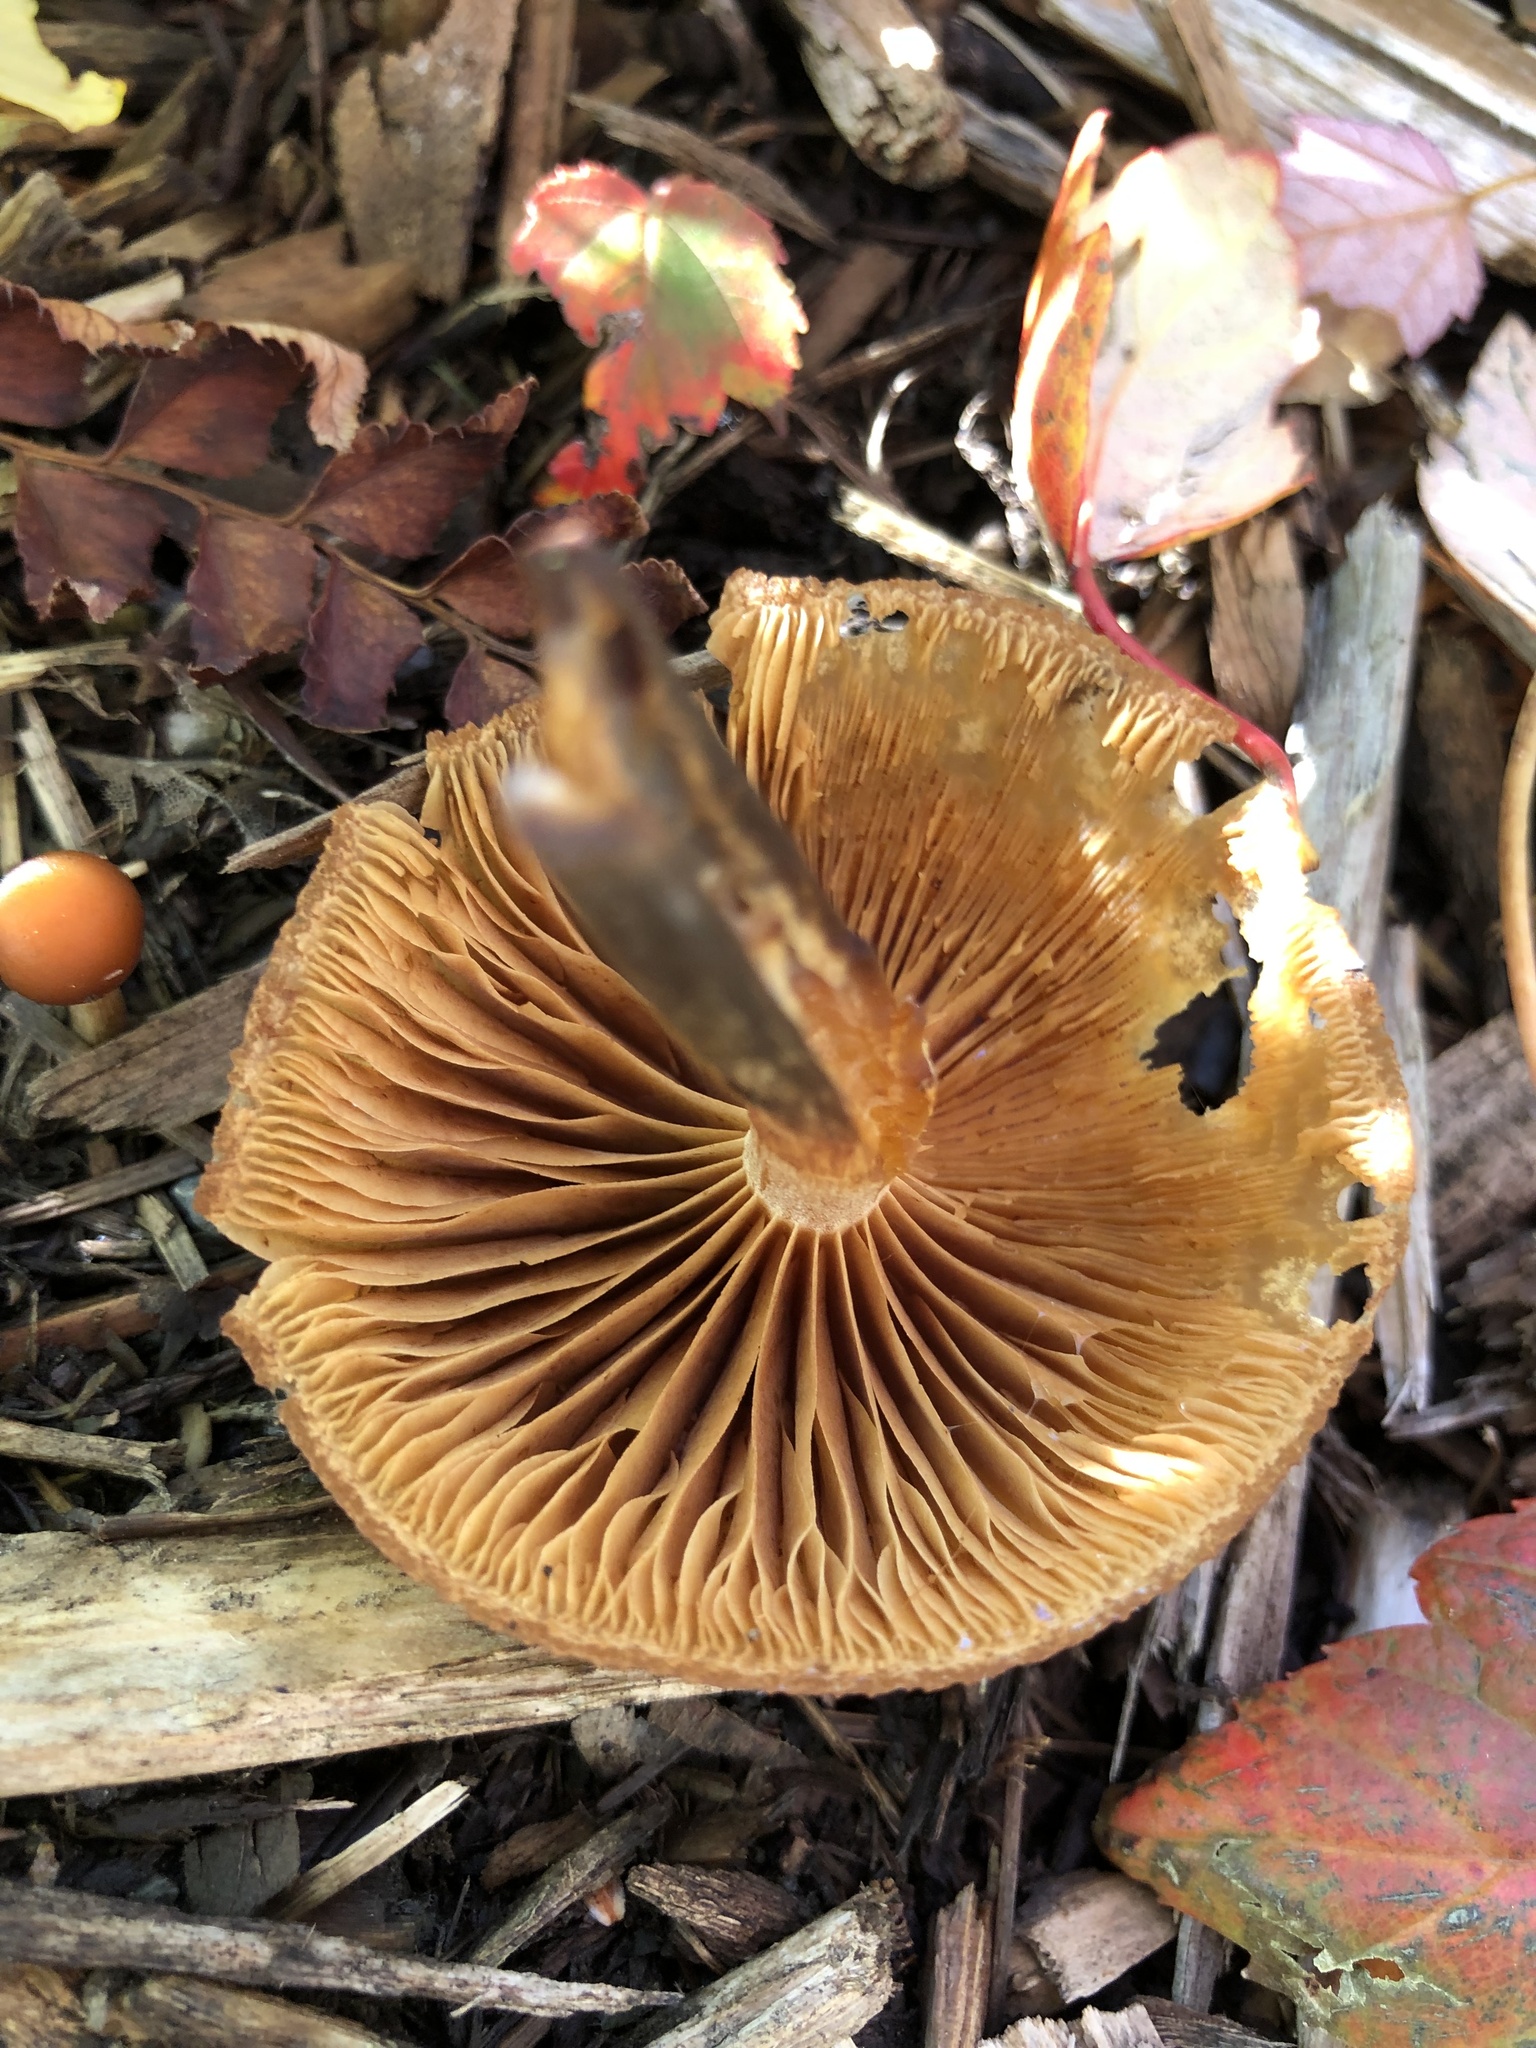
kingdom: Fungi
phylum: Basidiomycota
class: Agaricomycetes
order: Agaricales
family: Hymenogastraceae
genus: Galerina
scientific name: Galerina marginata
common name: Funeral bell
